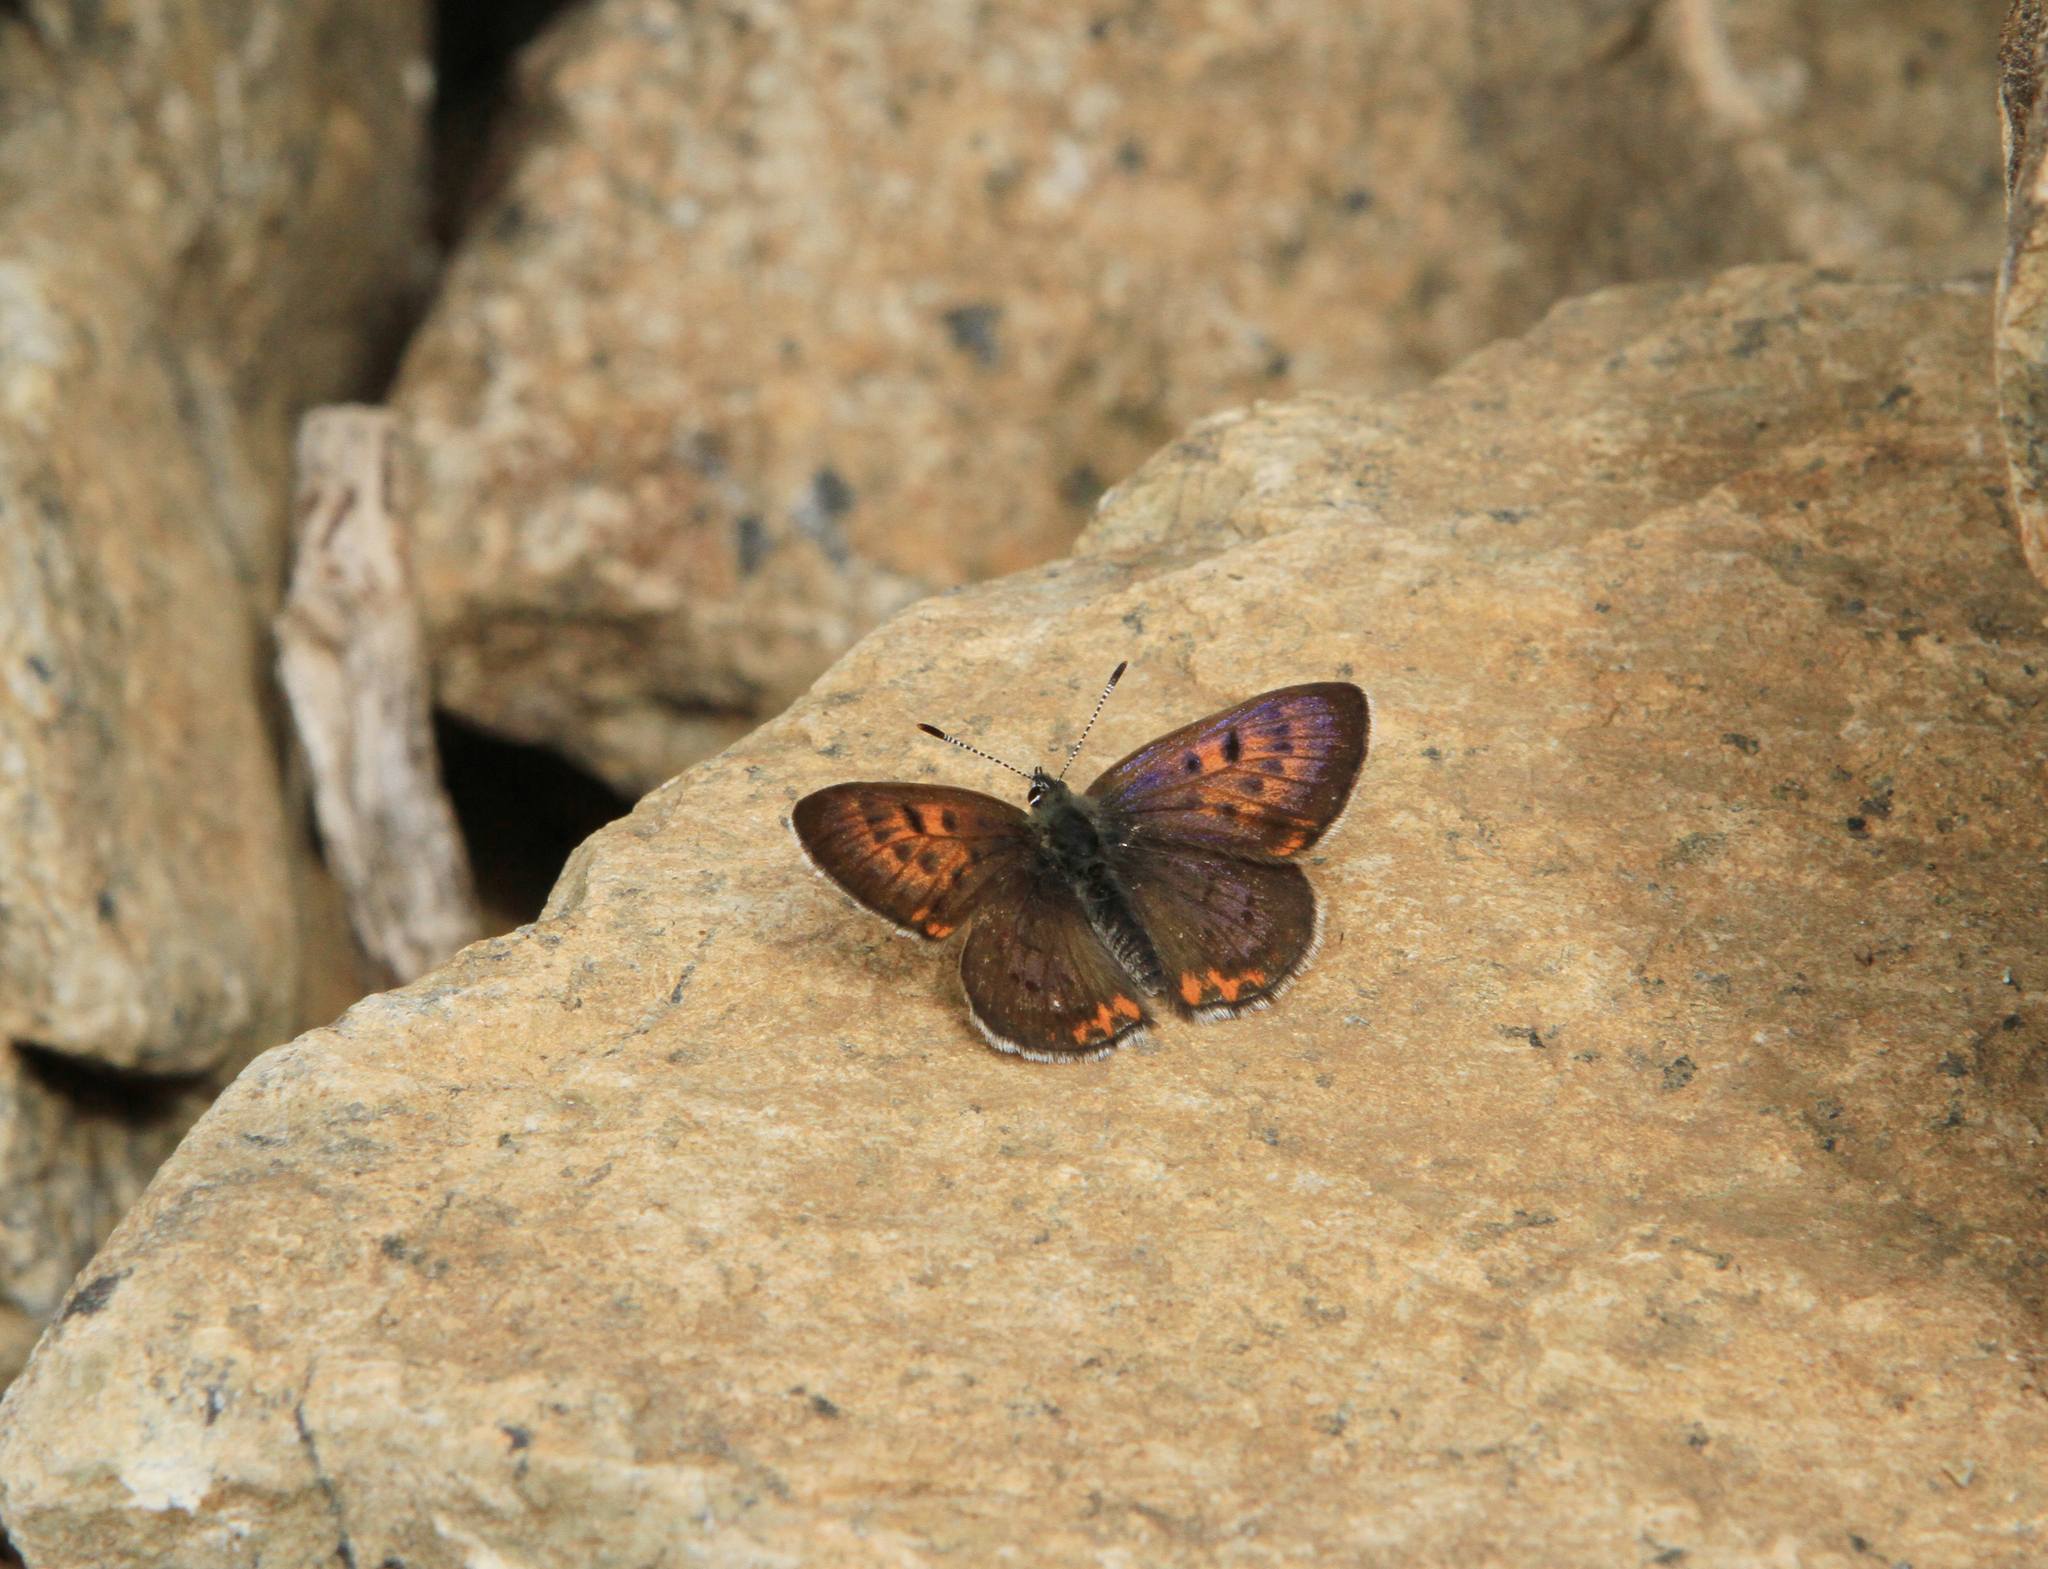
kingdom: Animalia
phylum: Arthropoda
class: Insecta
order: Lepidoptera
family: Lycaenidae
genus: Helleia
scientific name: Helleia helle
